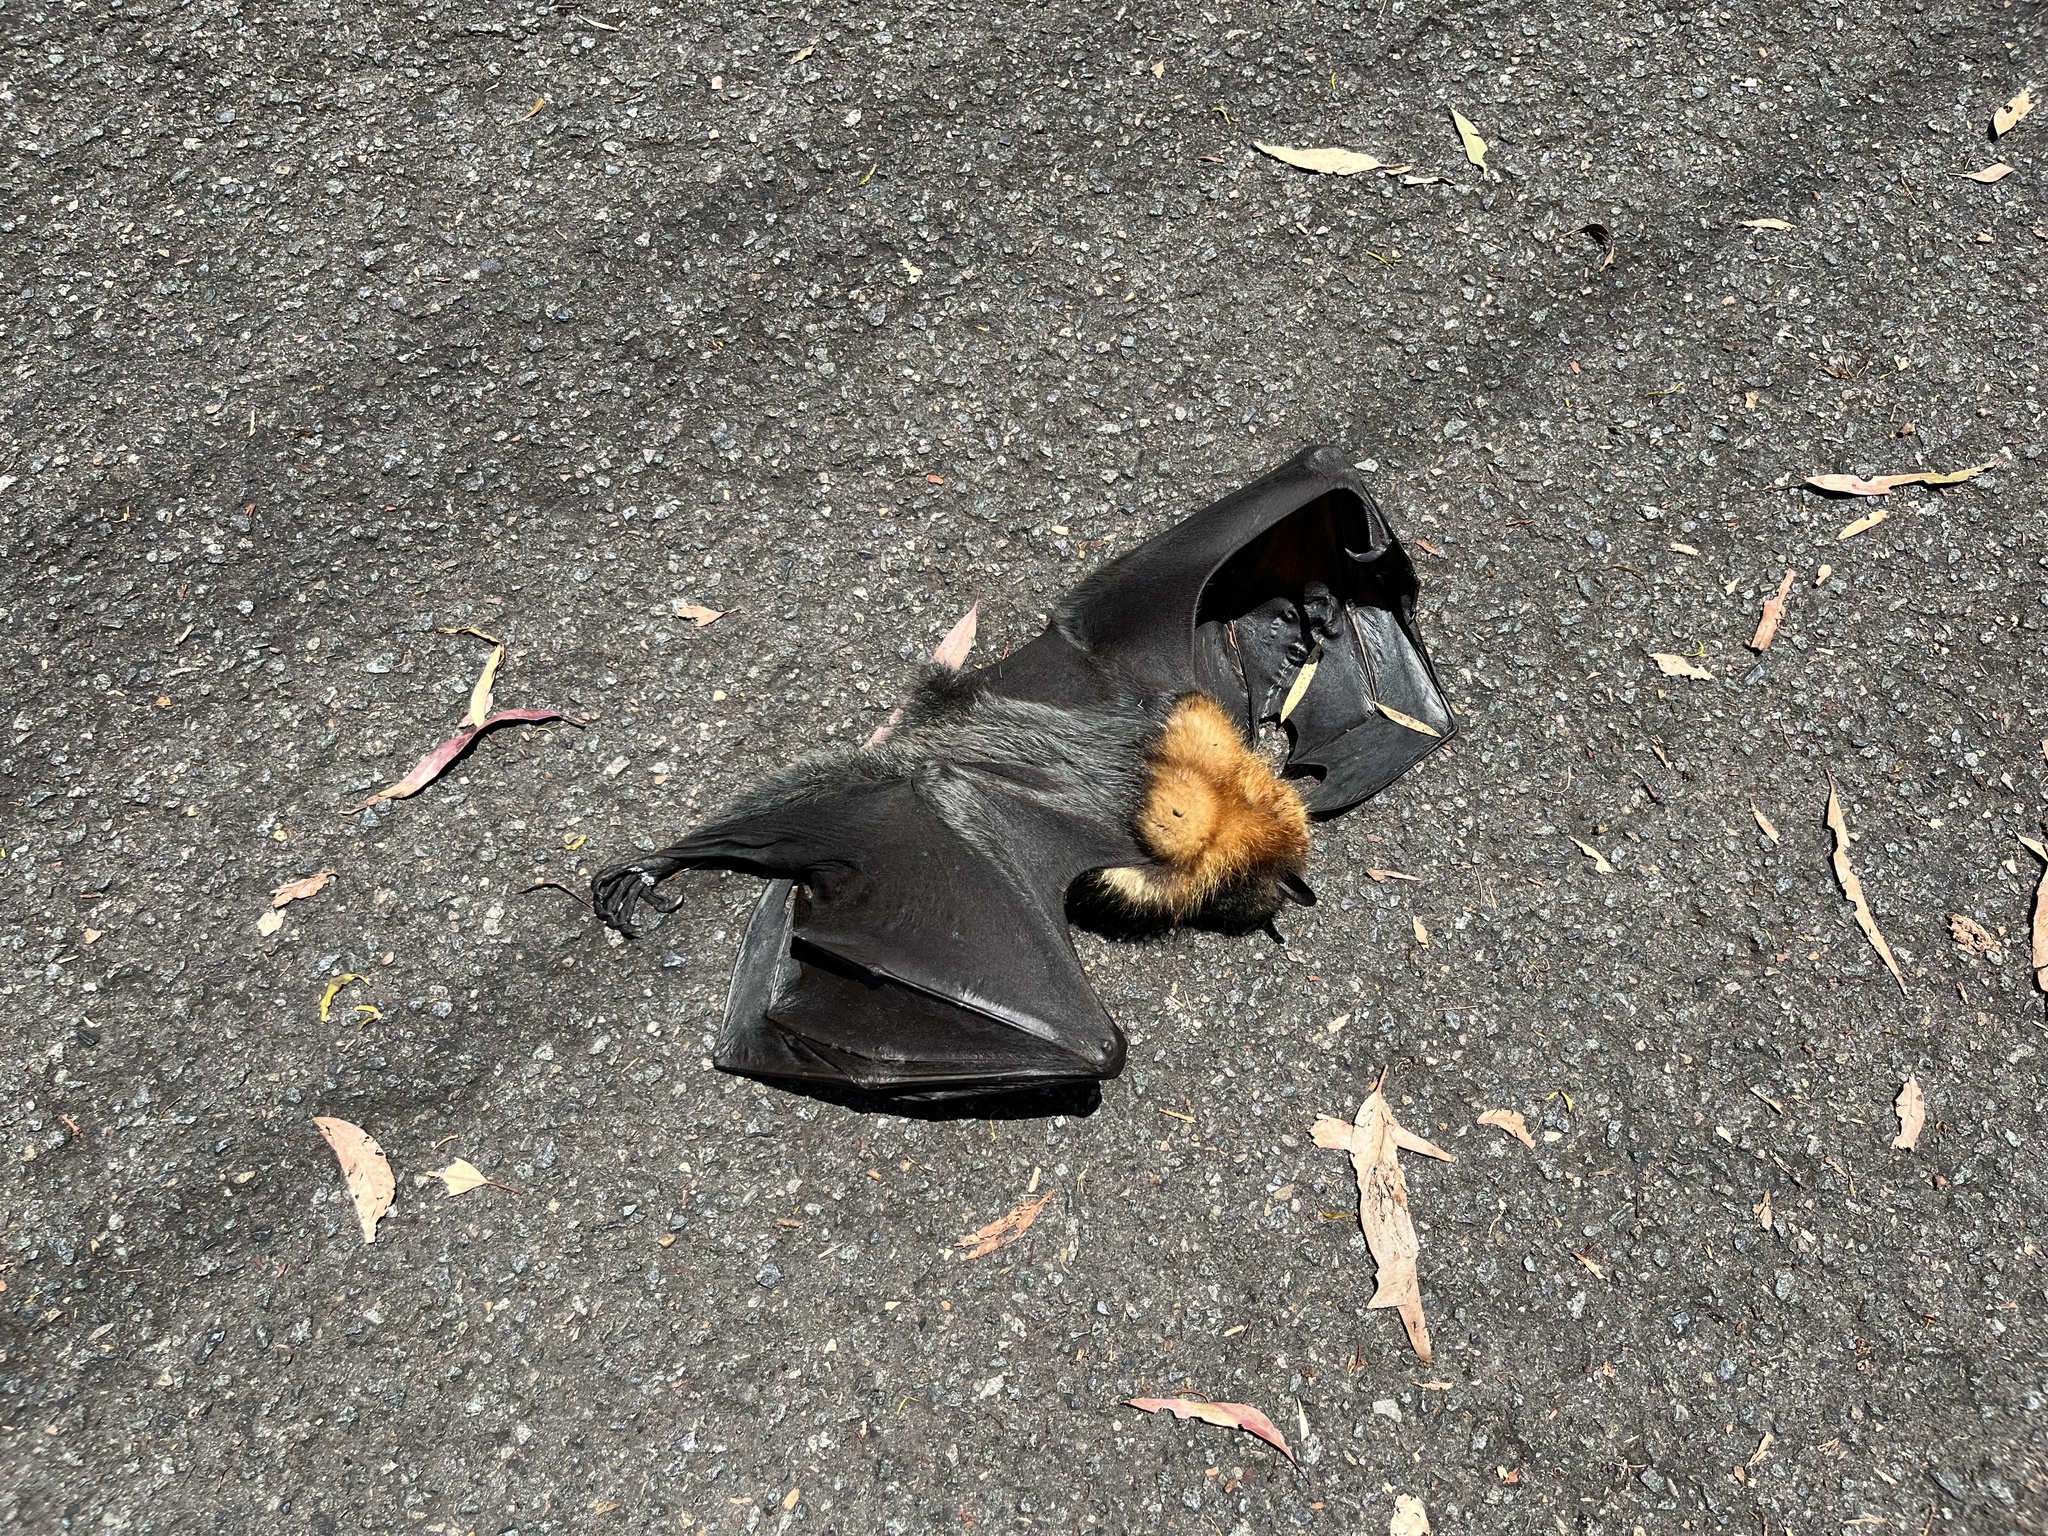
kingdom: Animalia
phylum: Chordata
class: Mammalia
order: Chiroptera
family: Pteropodidae
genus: Pteropus
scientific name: Pteropus poliocephalus
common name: Gray-headed flying fox
